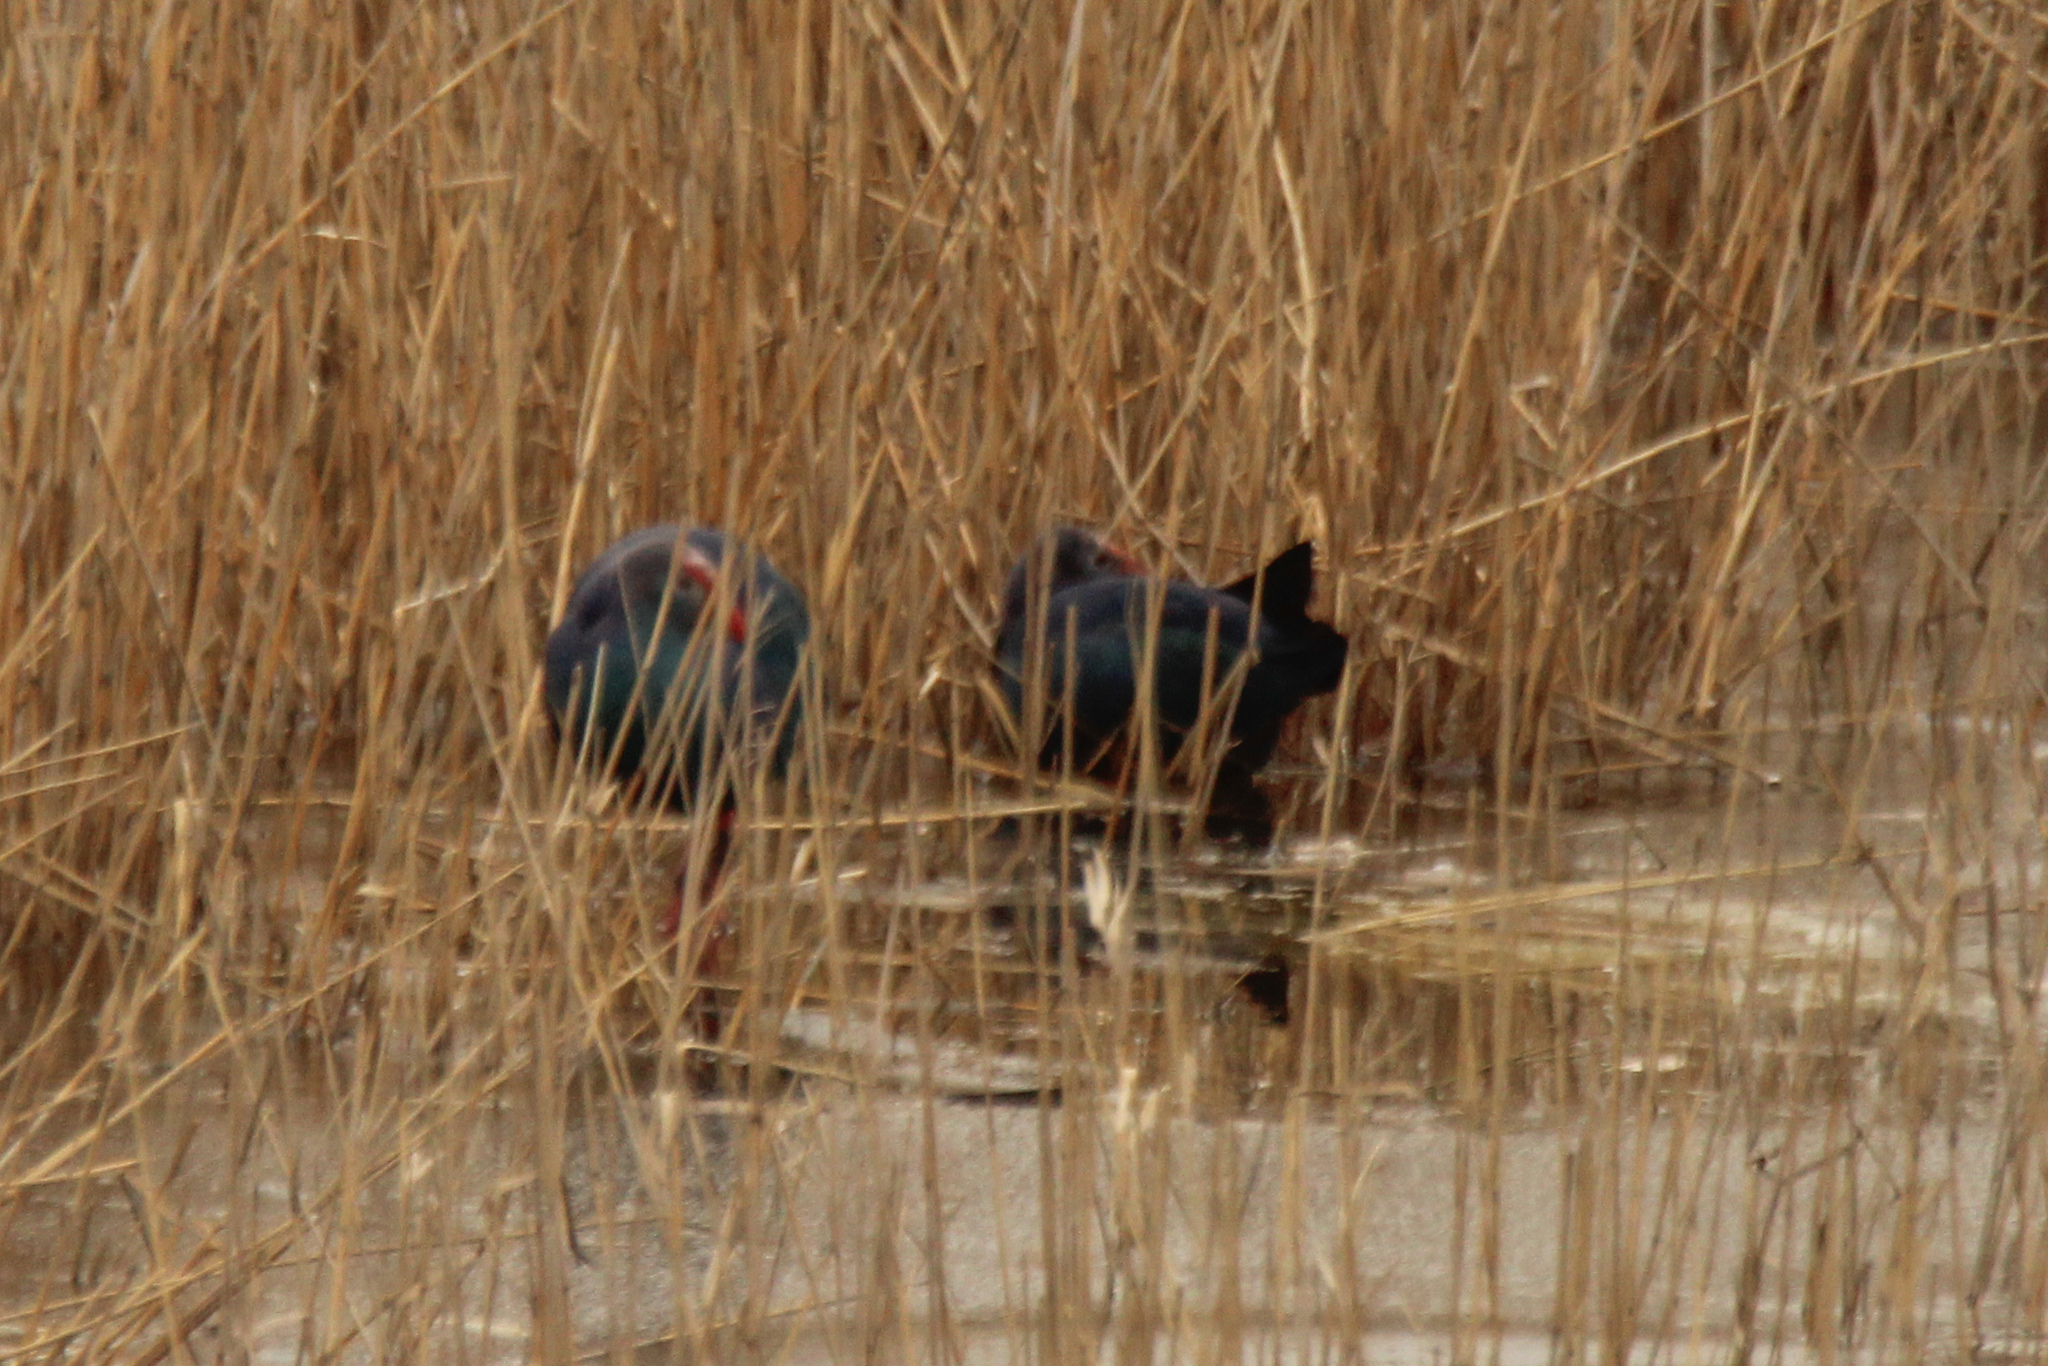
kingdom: Animalia
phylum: Chordata
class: Aves
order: Gruiformes
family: Rallidae
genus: Porphyrio
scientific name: Porphyrio porphyrio
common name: Purple swamphen
